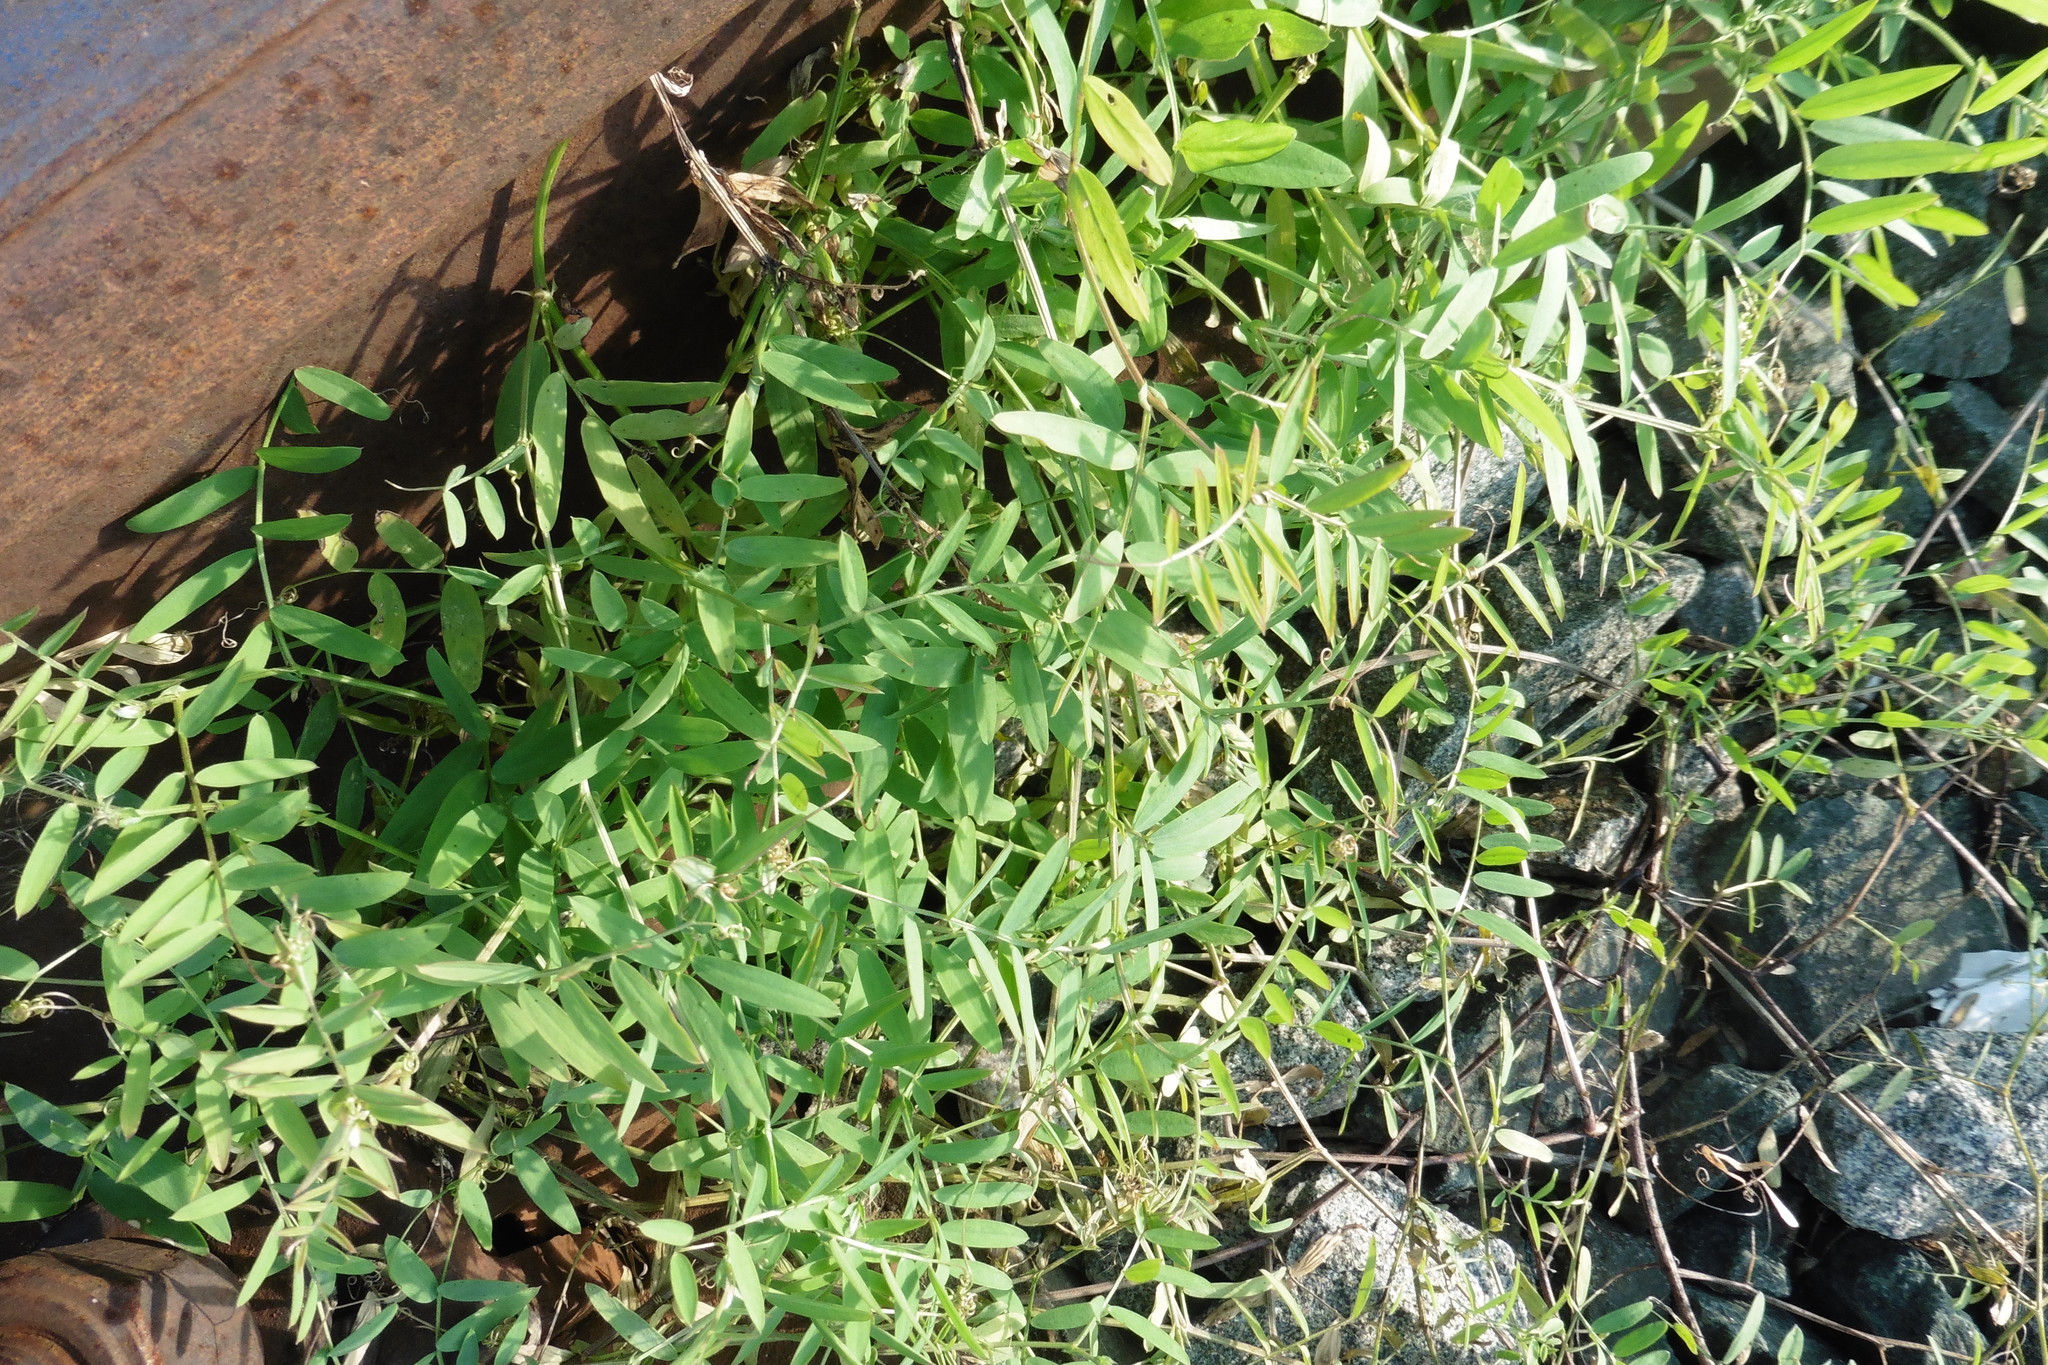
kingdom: Plantae
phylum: Tracheophyta
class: Magnoliopsida
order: Fabales
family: Fabaceae
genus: Vicia
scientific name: Vicia biennis
